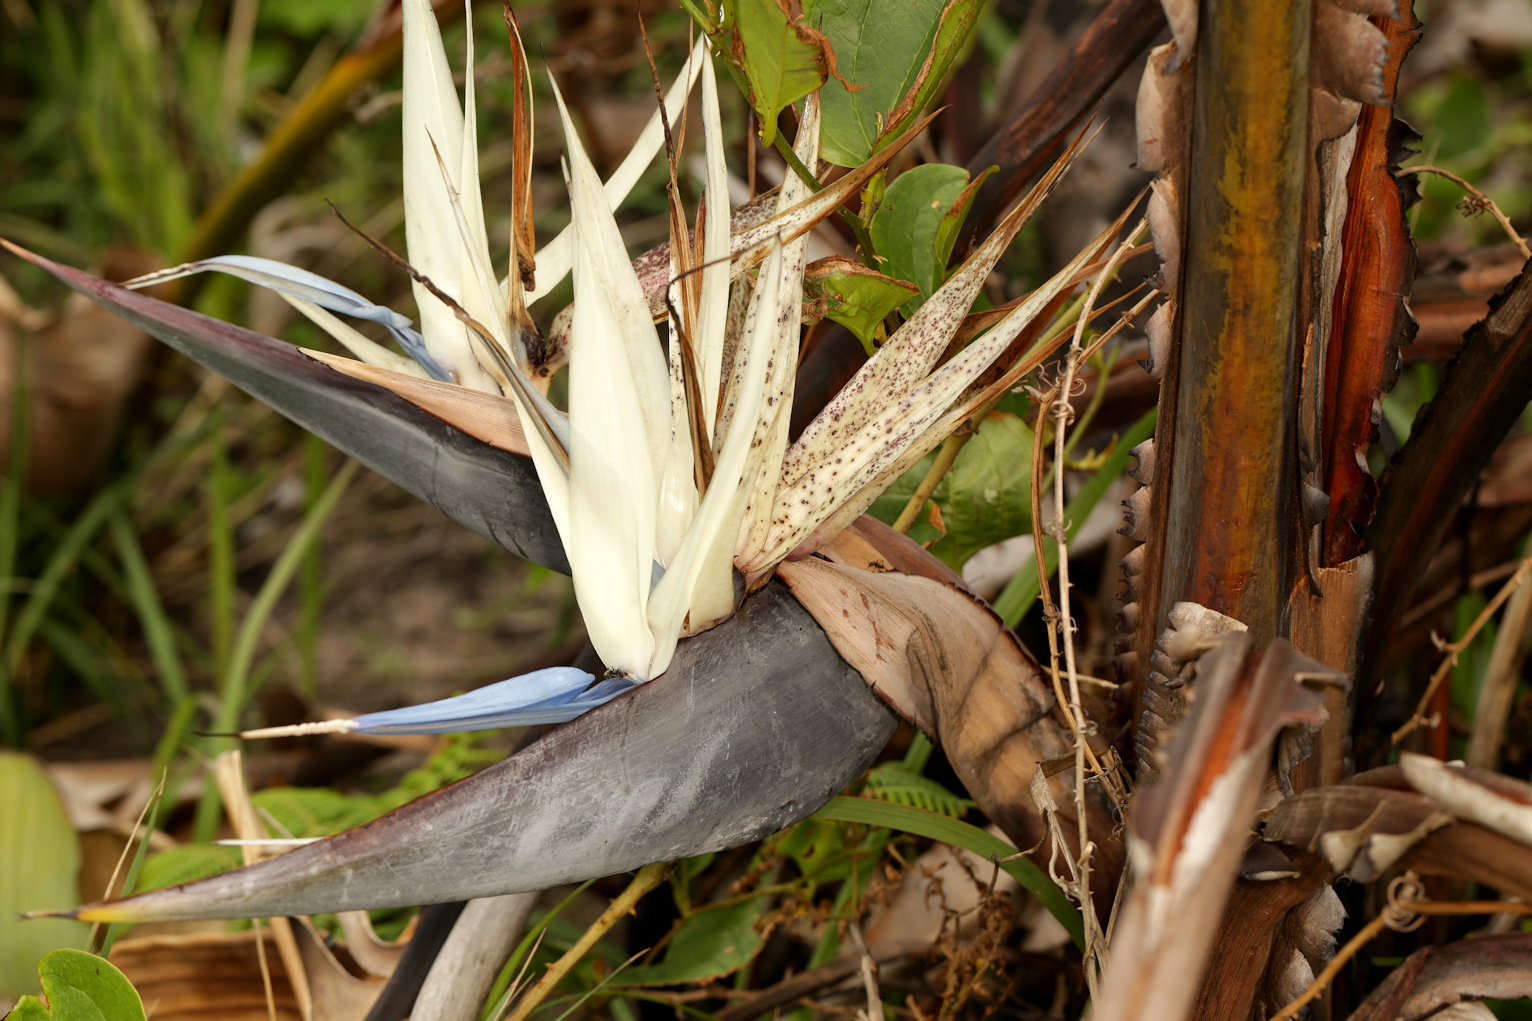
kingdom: Plantae
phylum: Tracheophyta
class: Liliopsida
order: Zingiberales
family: Strelitziaceae
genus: Strelitzia
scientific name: Strelitzia nicolai
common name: Bird-of-paradise tree
